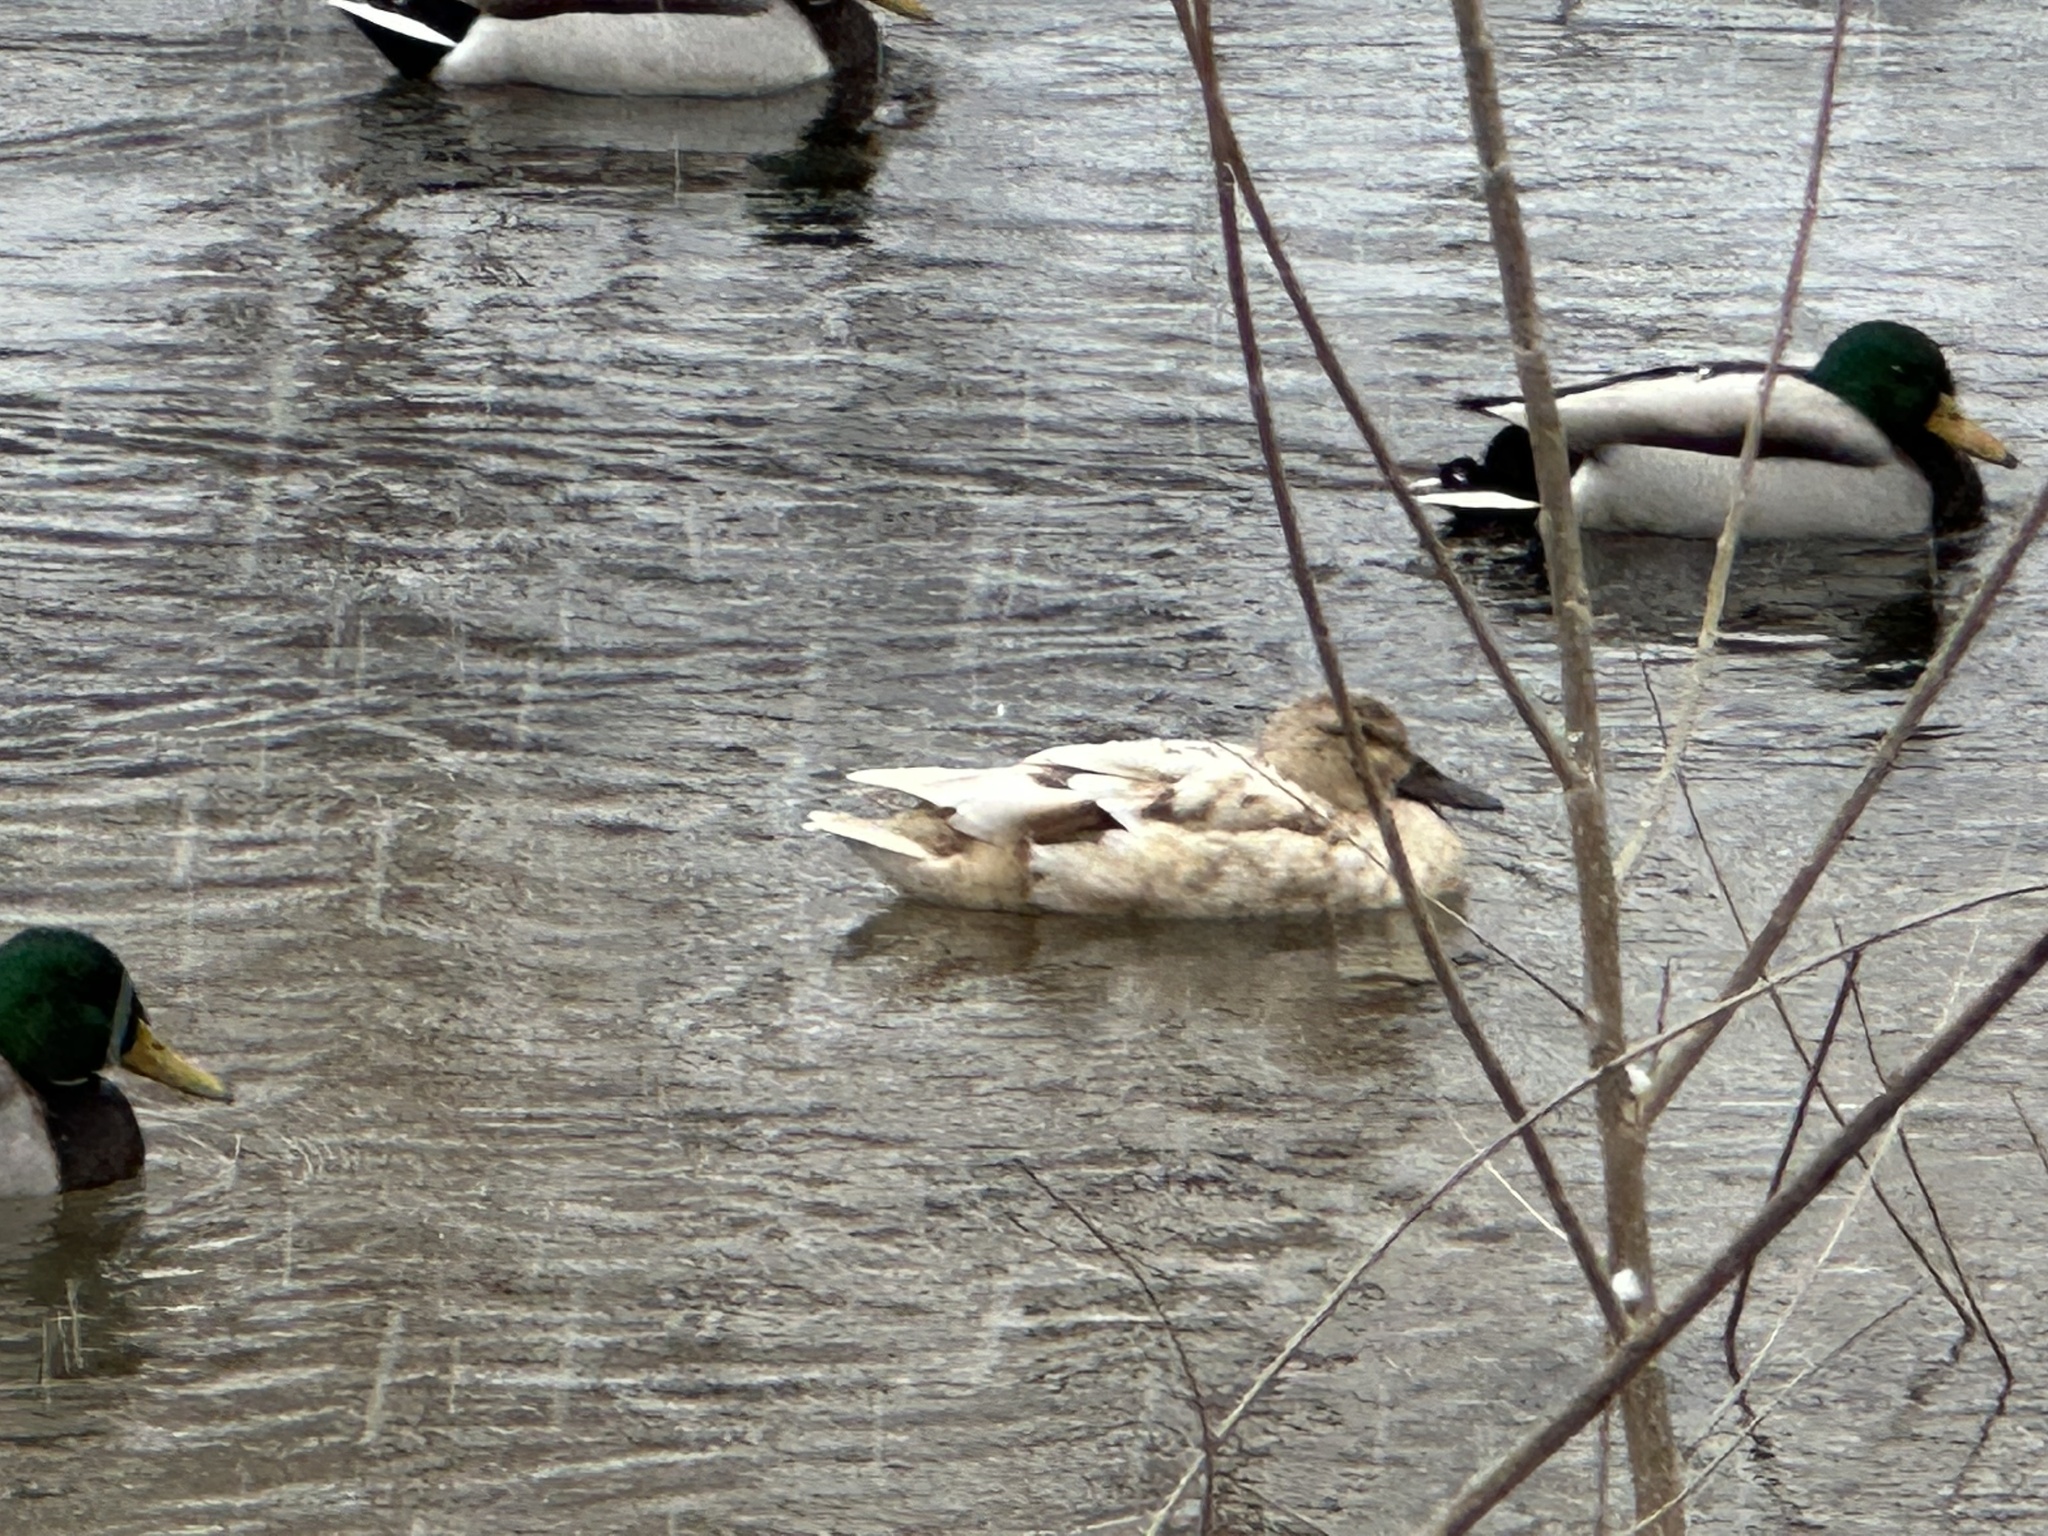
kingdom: Animalia
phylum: Chordata
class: Aves
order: Anseriformes
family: Anatidae
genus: Anas
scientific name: Anas platyrhynchos
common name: Mallard
